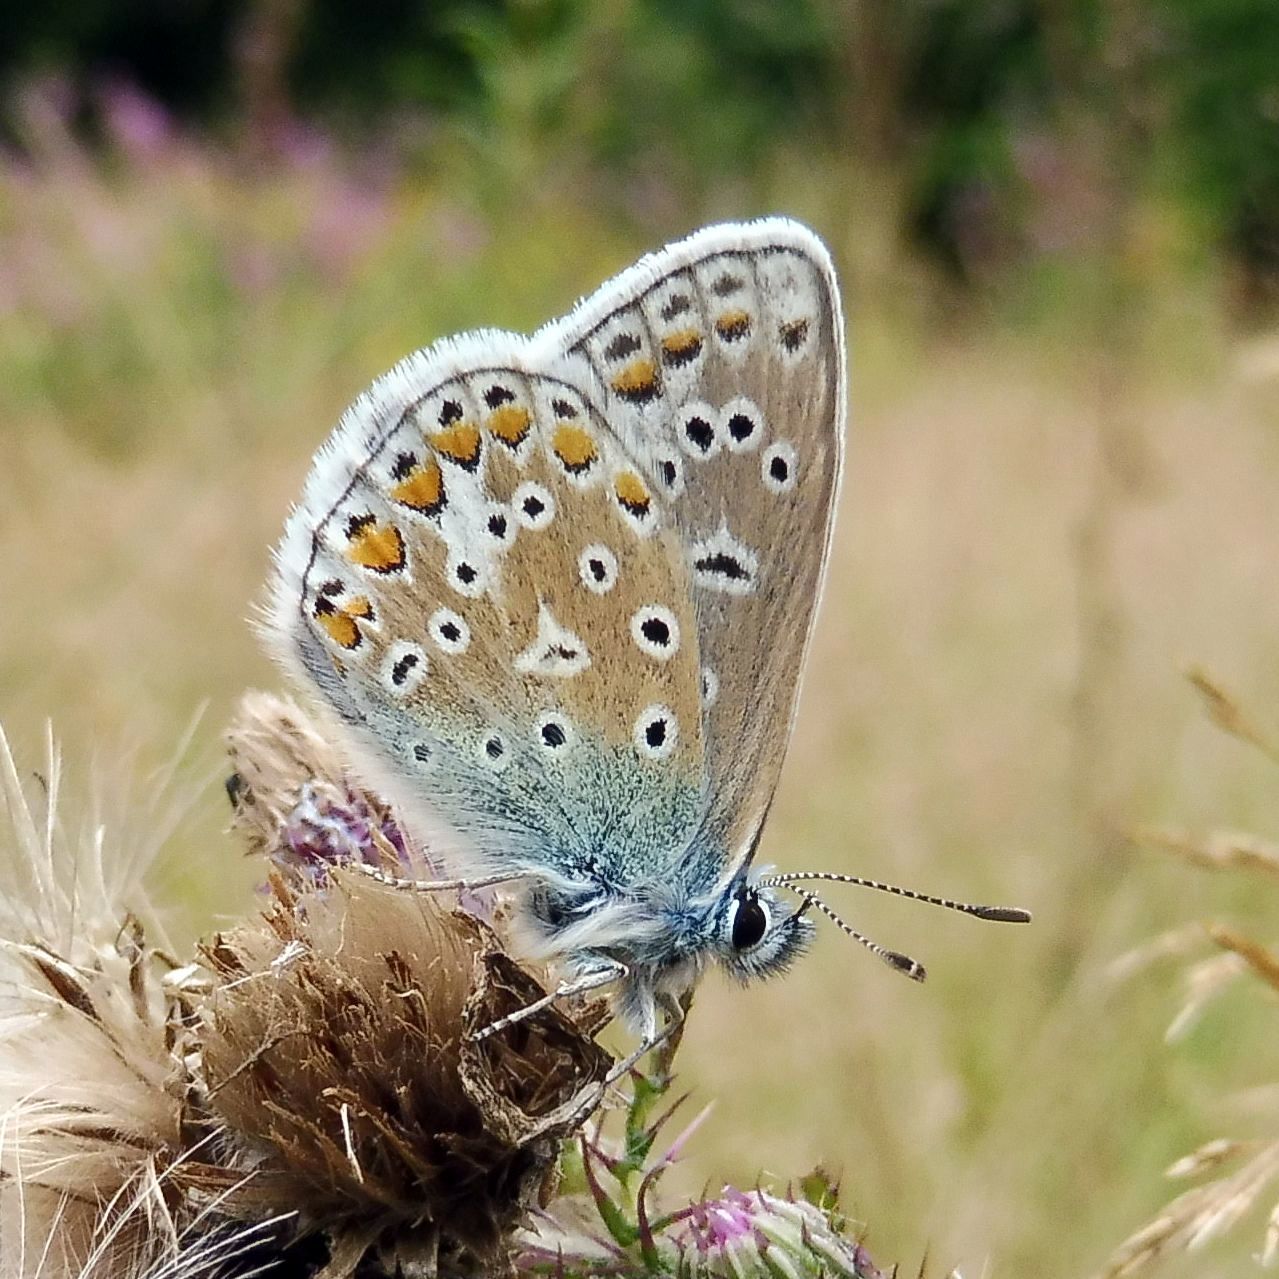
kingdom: Animalia
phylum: Arthropoda
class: Insecta
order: Lepidoptera
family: Lycaenidae
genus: Polyommatus
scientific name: Polyommatus icarus
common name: Common blue
